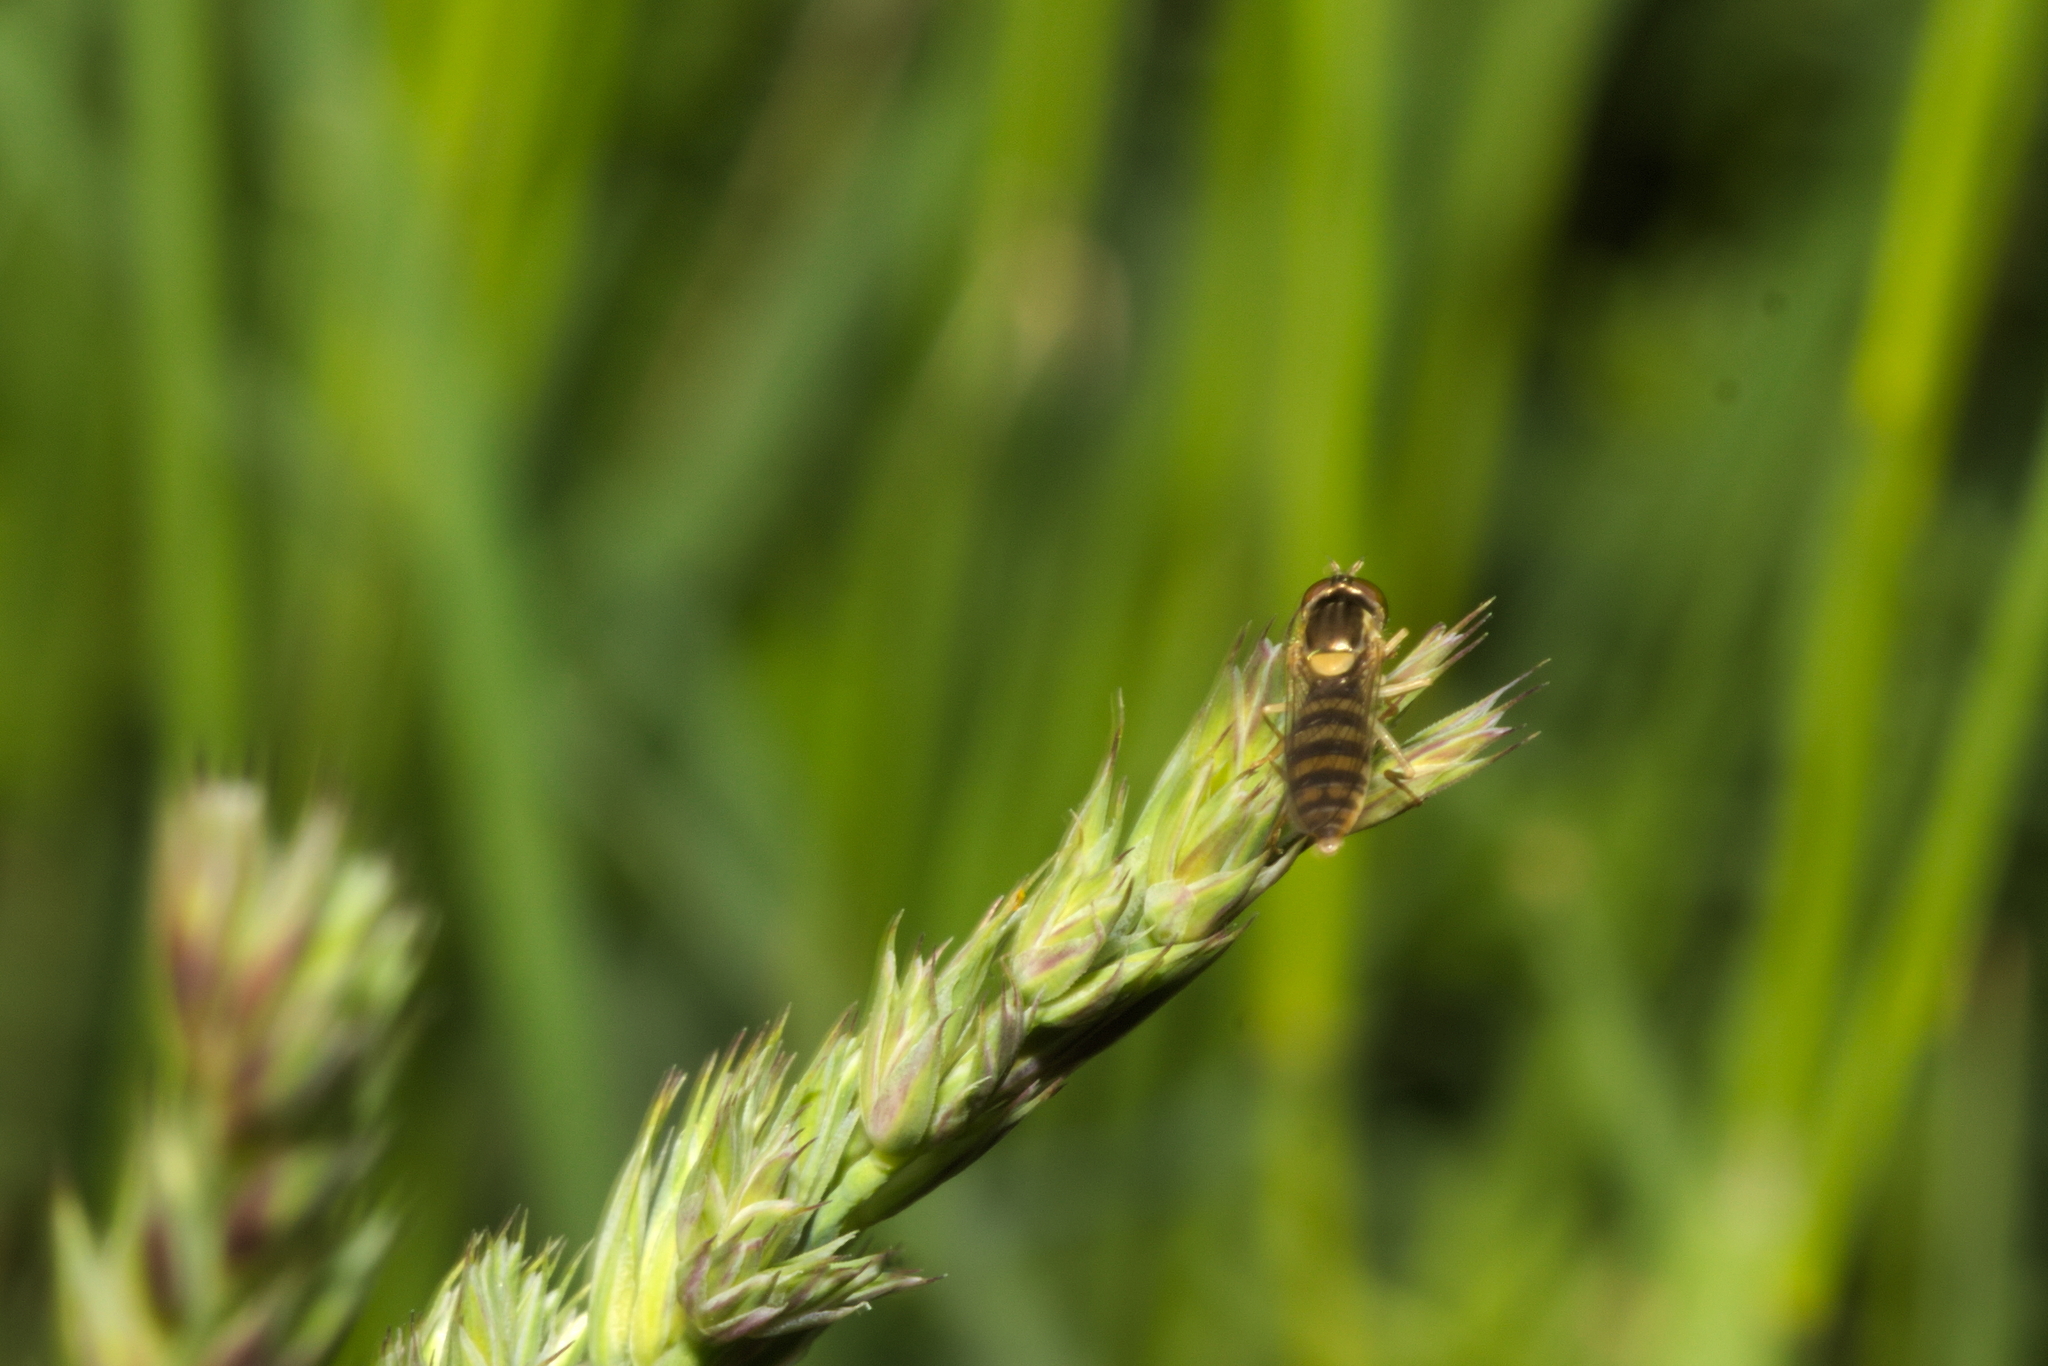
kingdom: Animalia
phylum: Arthropoda
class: Insecta
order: Diptera
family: Syrphidae
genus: Sphaerophoria
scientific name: Sphaerophoria
